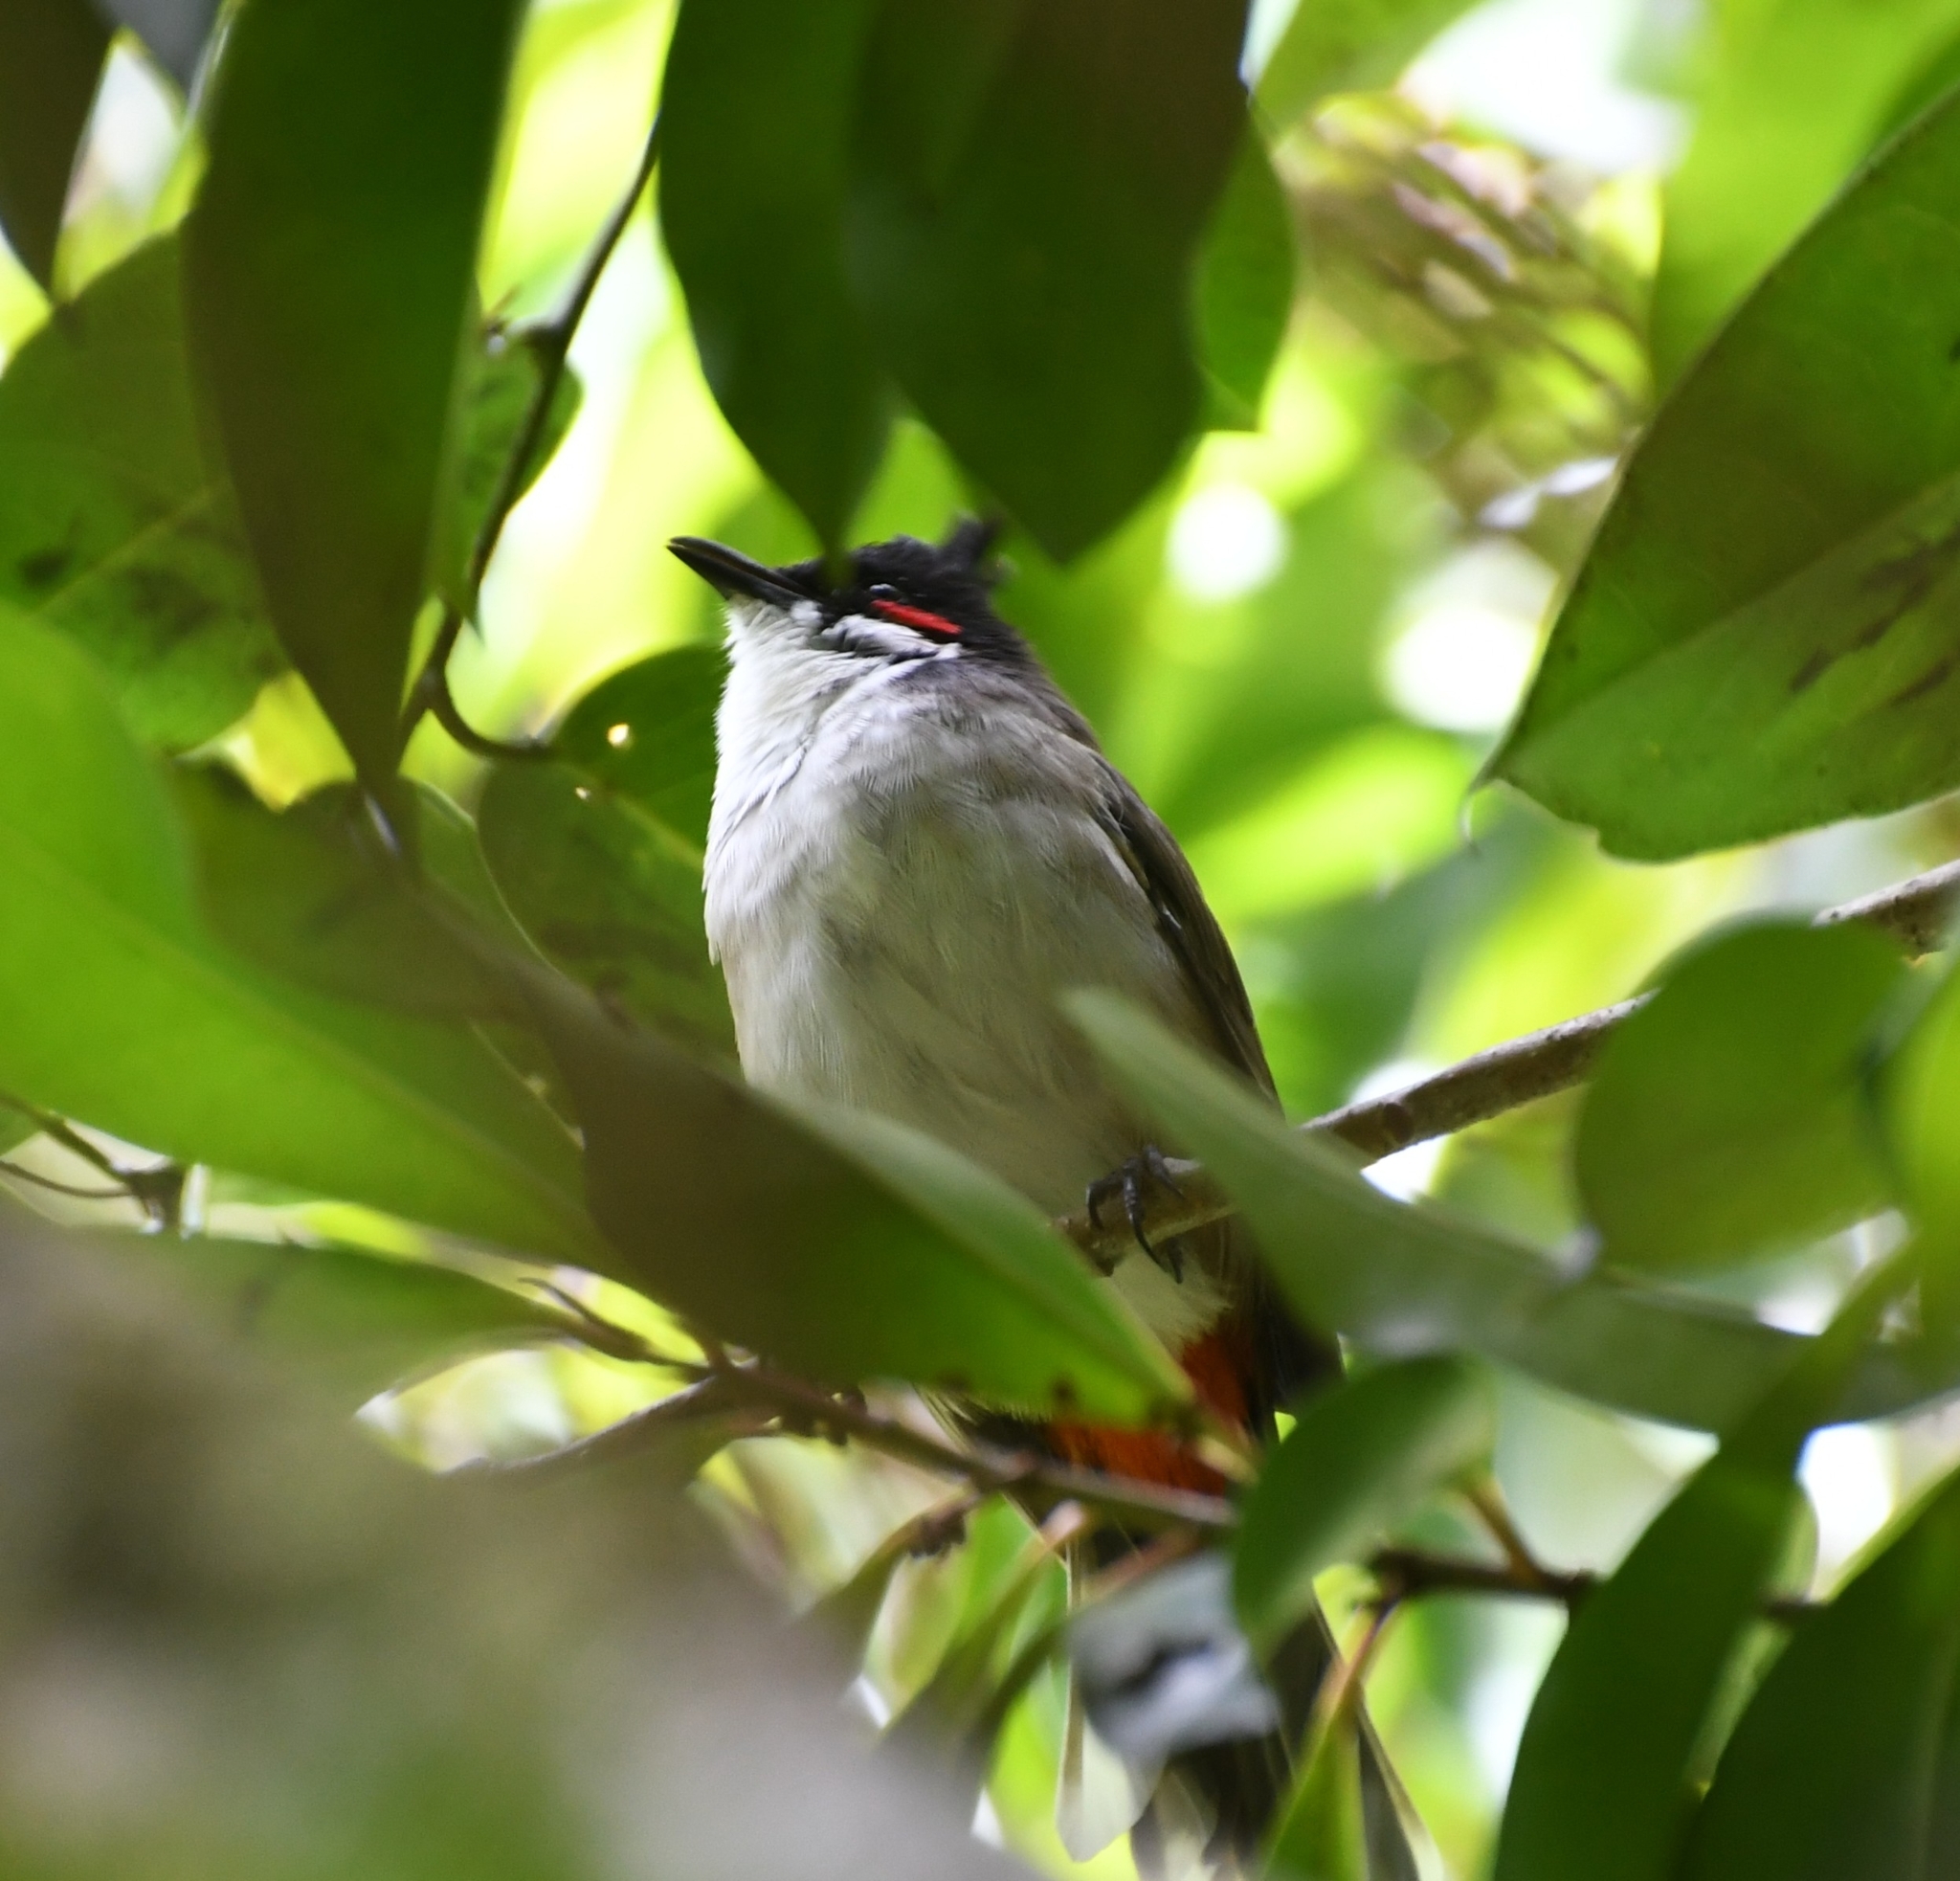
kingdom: Animalia
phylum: Chordata
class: Aves
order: Passeriformes
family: Pycnonotidae
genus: Pycnonotus
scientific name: Pycnonotus jocosus
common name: Red-whiskered bulbul
